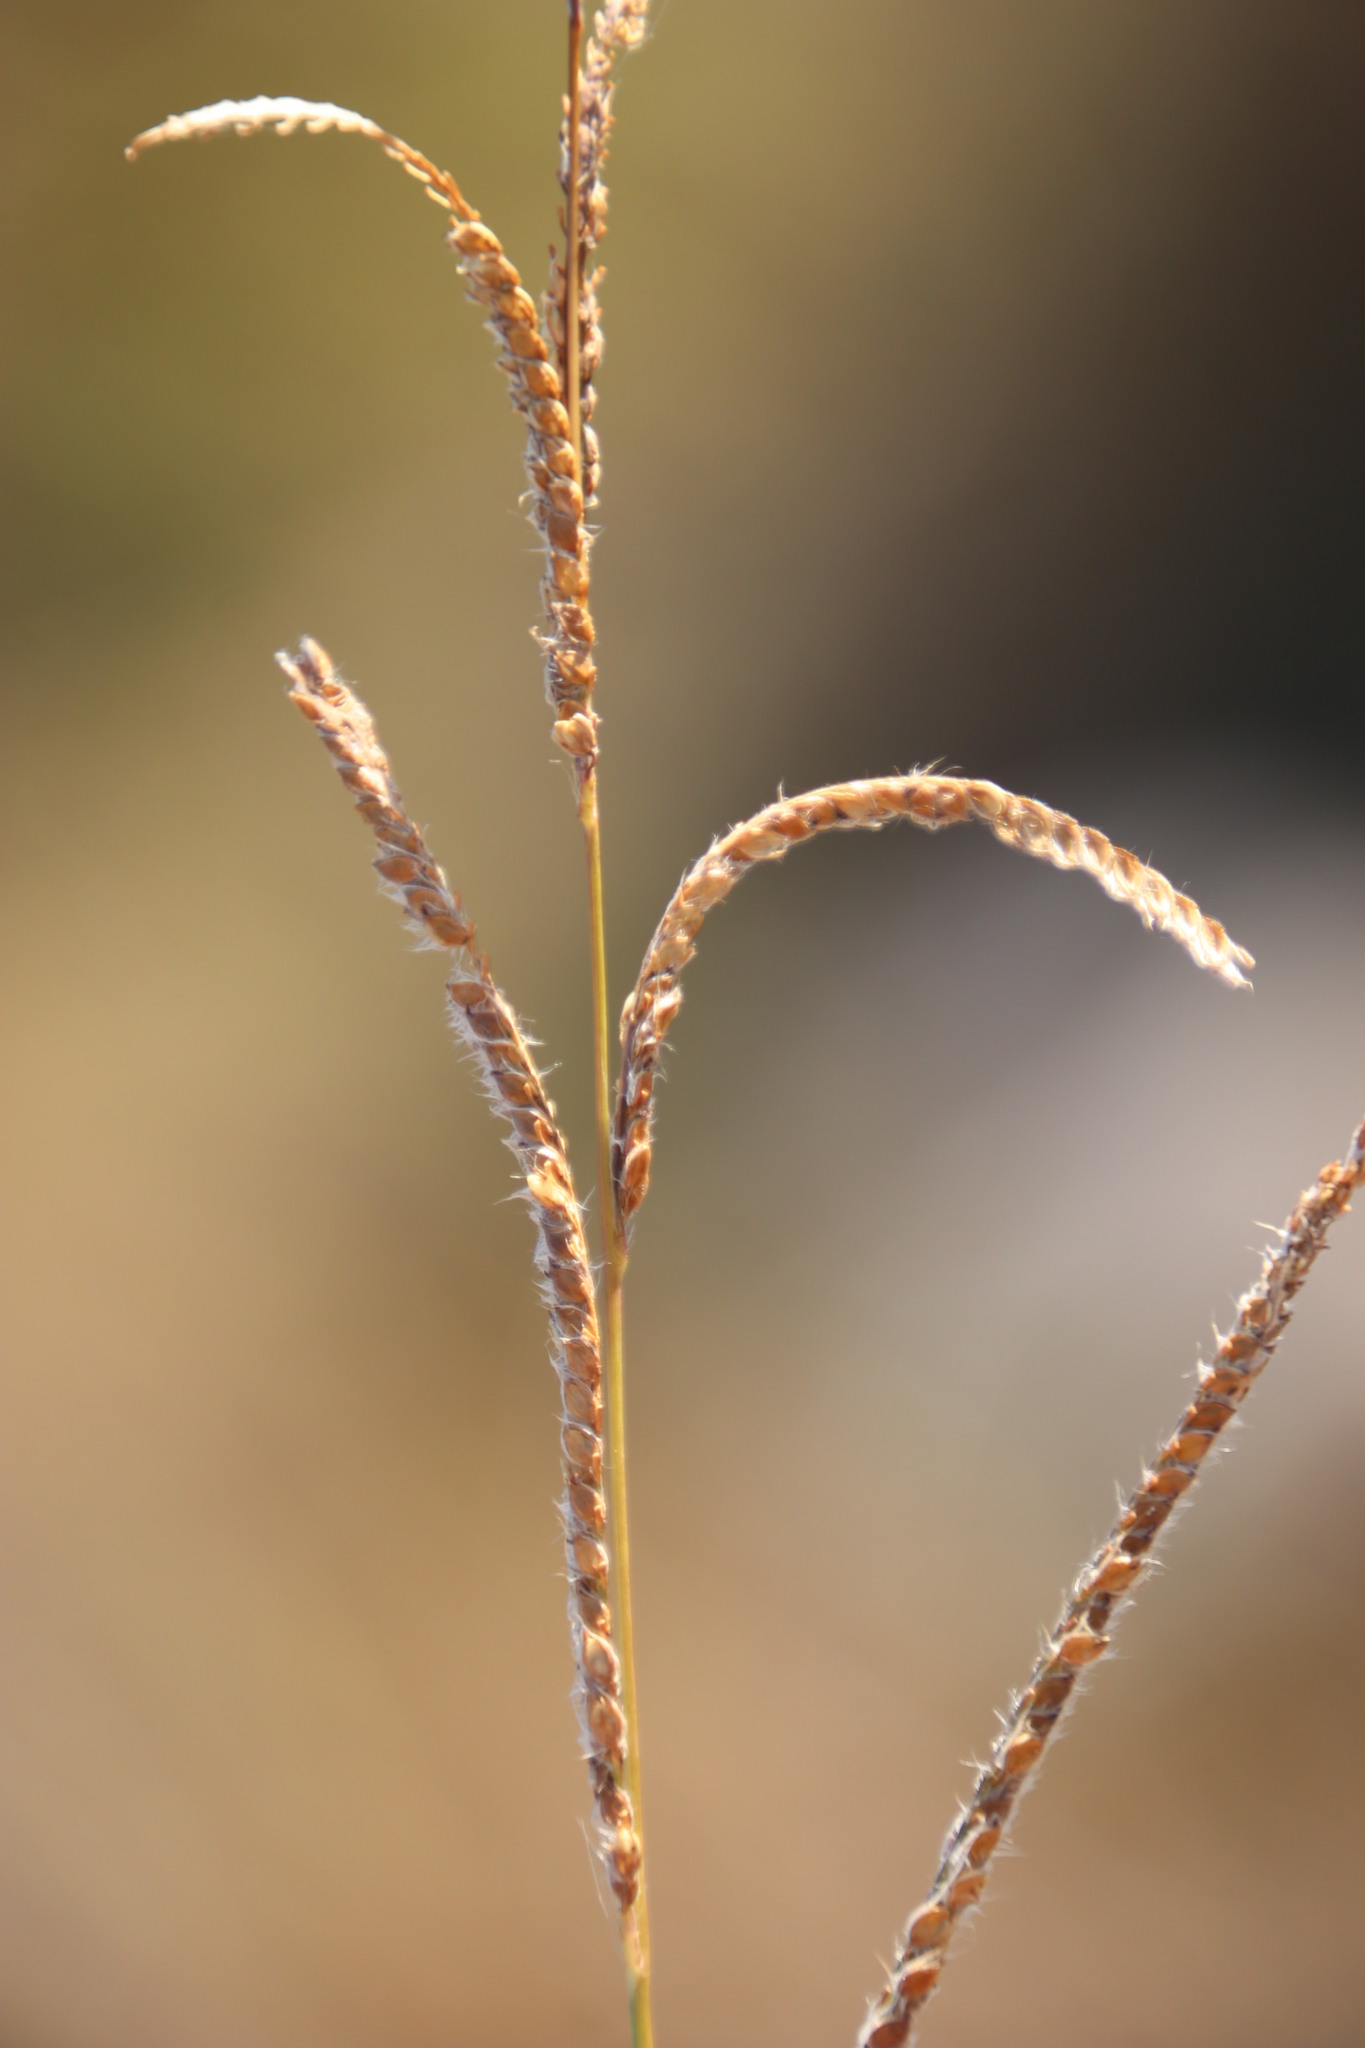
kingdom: Plantae
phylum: Tracheophyta
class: Liliopsida
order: Poales
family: Poaceae
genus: Paspalum
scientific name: Paspalum urvillei
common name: Vasey's grass
